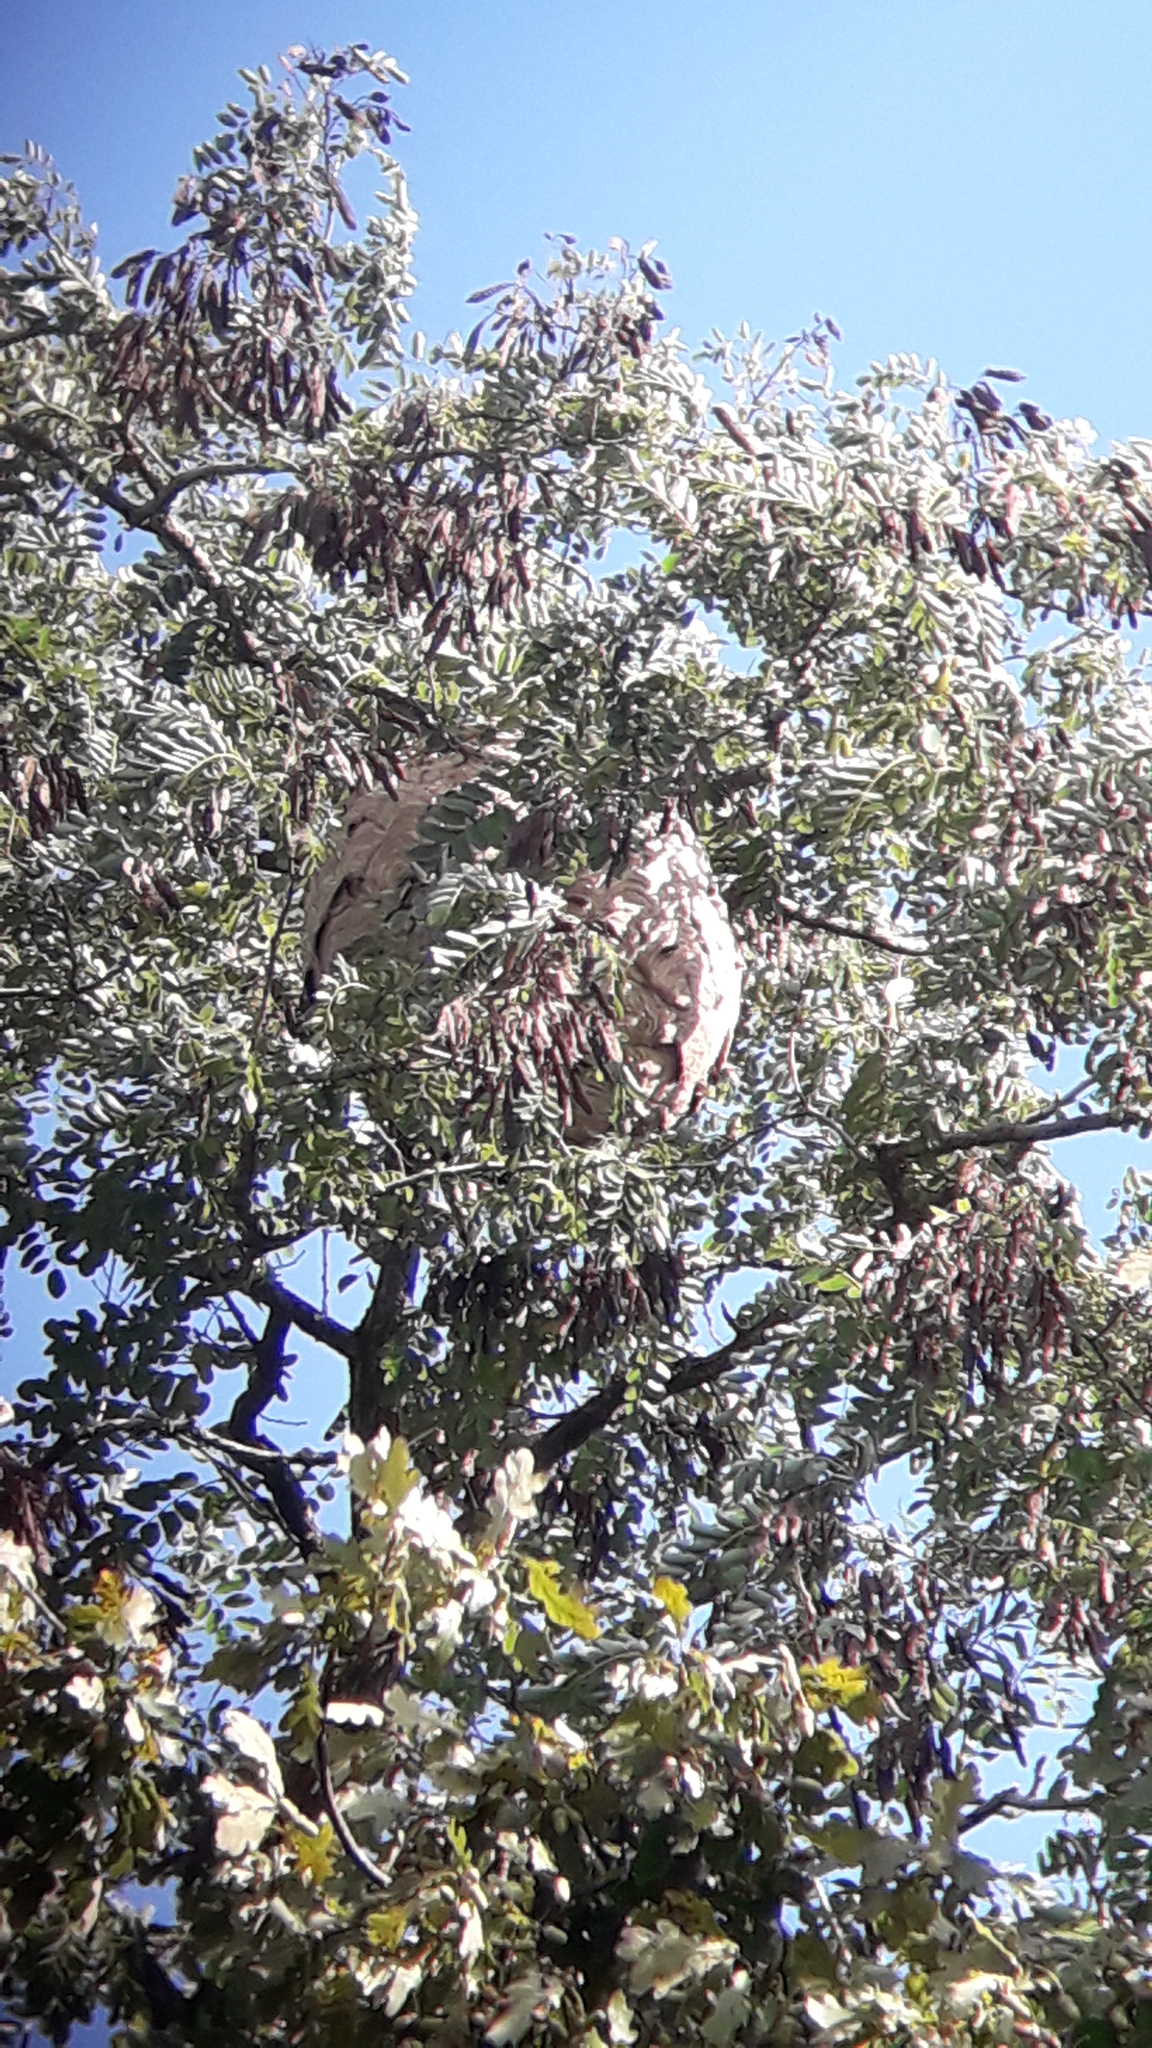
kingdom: Animalia
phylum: Arthropoda
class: Insecta
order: Hymenoptera
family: Vespidae
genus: Vespa
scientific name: Vespa velutina
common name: Asian hornet
